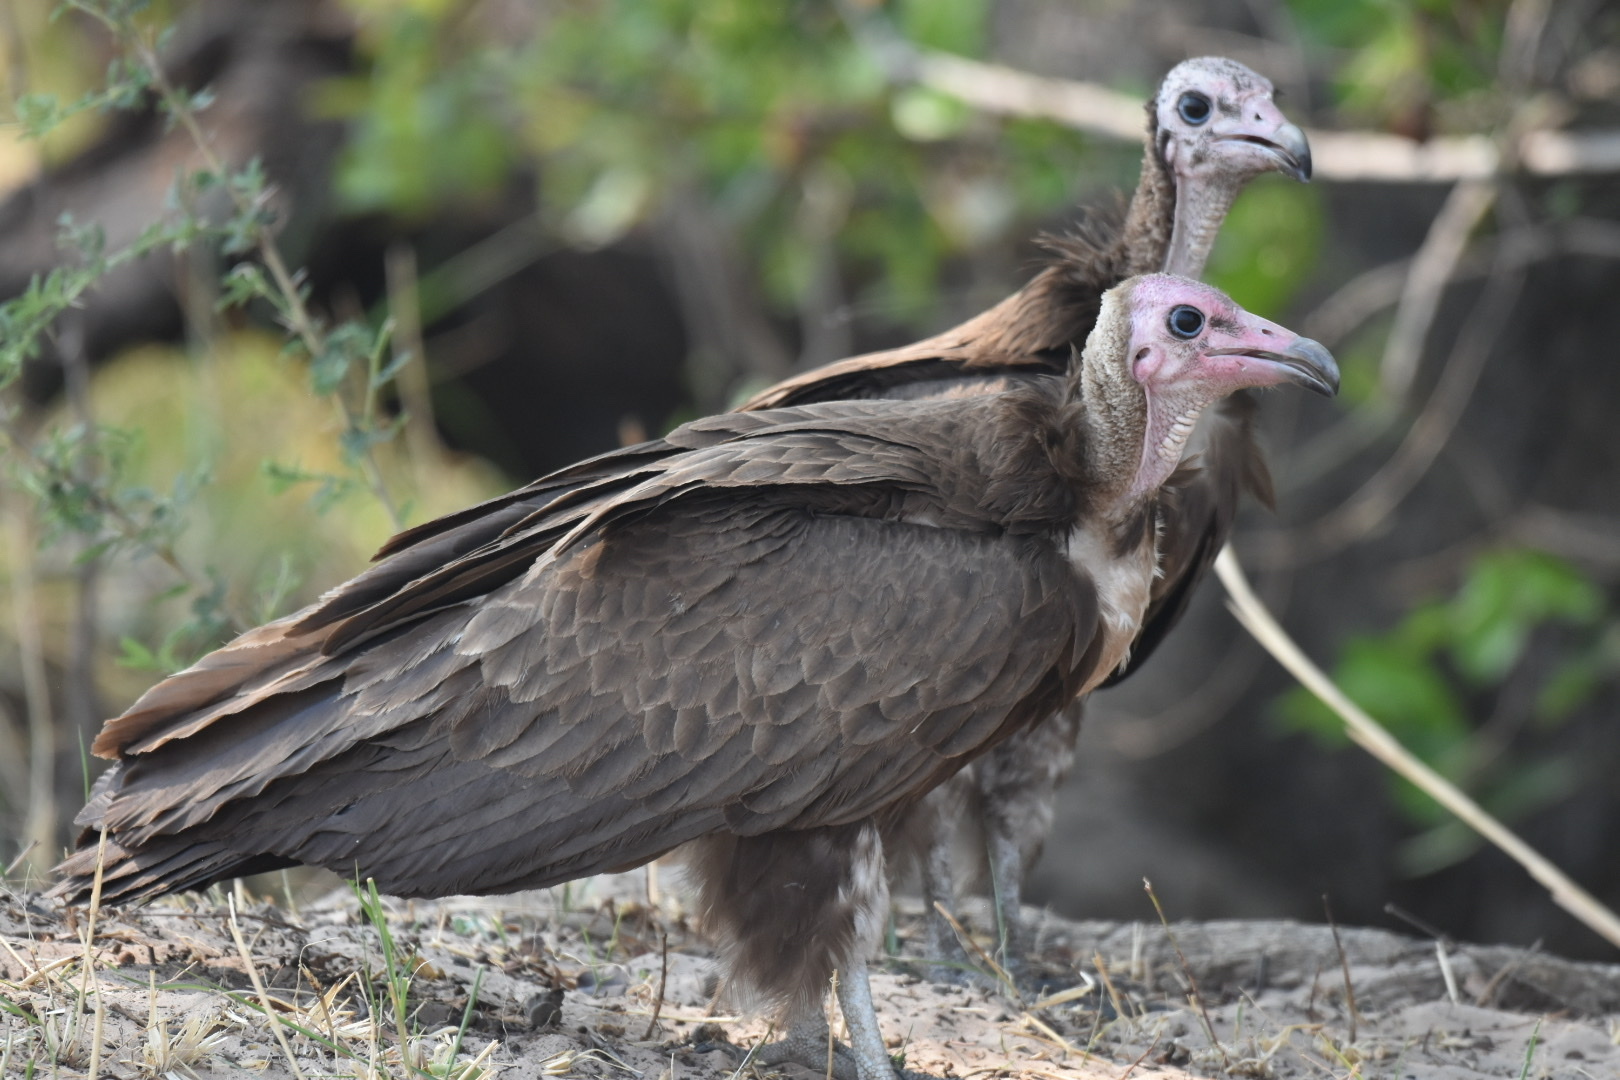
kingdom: Animalia
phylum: Chordata
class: Aves
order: Accipitriformes
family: Accipitridae
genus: Necrosyrtes
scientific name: Necrosyrtes monachus
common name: Hooded vulture
